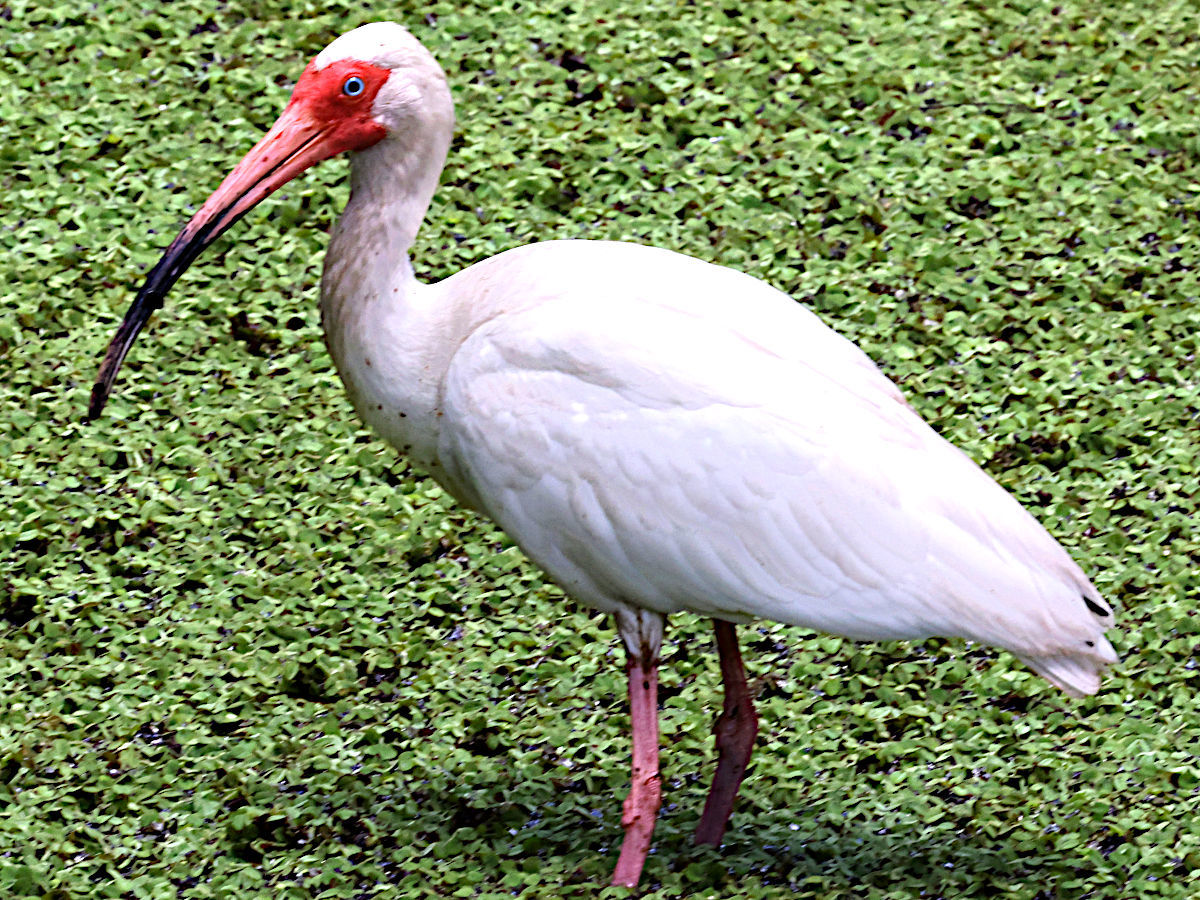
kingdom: Animalia
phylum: Chordata
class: Aves
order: Pelecaniformes
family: Threskiornithidae
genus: Eudocimus
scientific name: Eudocimus albus
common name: White ibis
